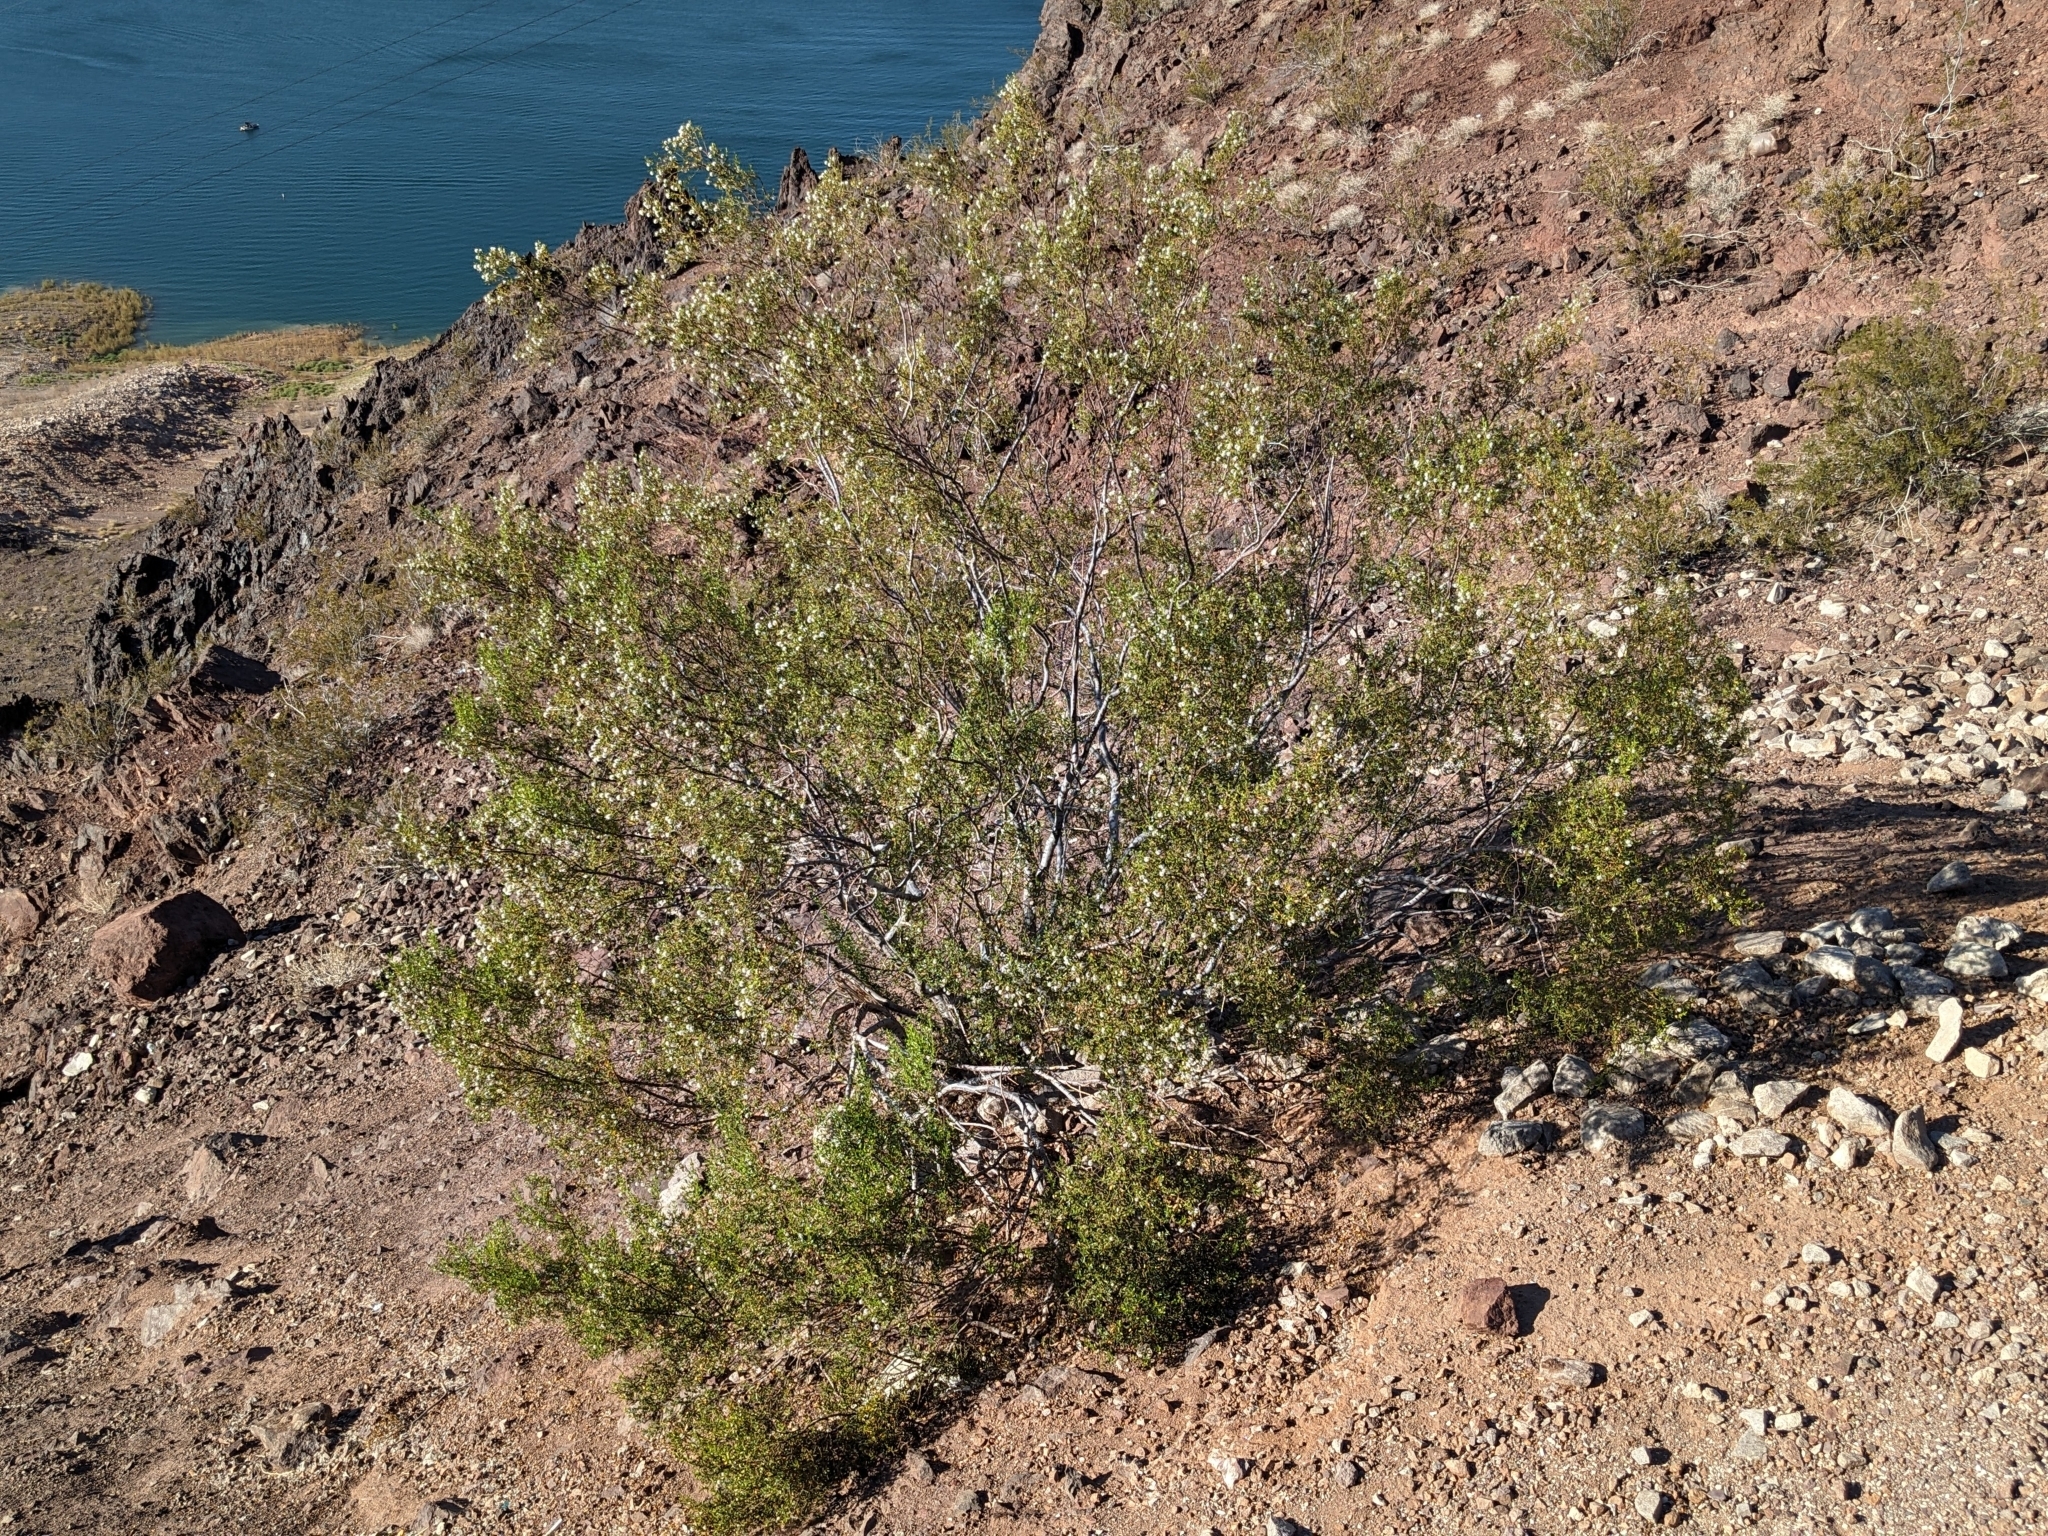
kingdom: Plantae
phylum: Tracheophyta
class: Magnoliopsida
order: Zygophyllales
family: Zygophyllaceae
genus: Larrea
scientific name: Larrea tridentata
